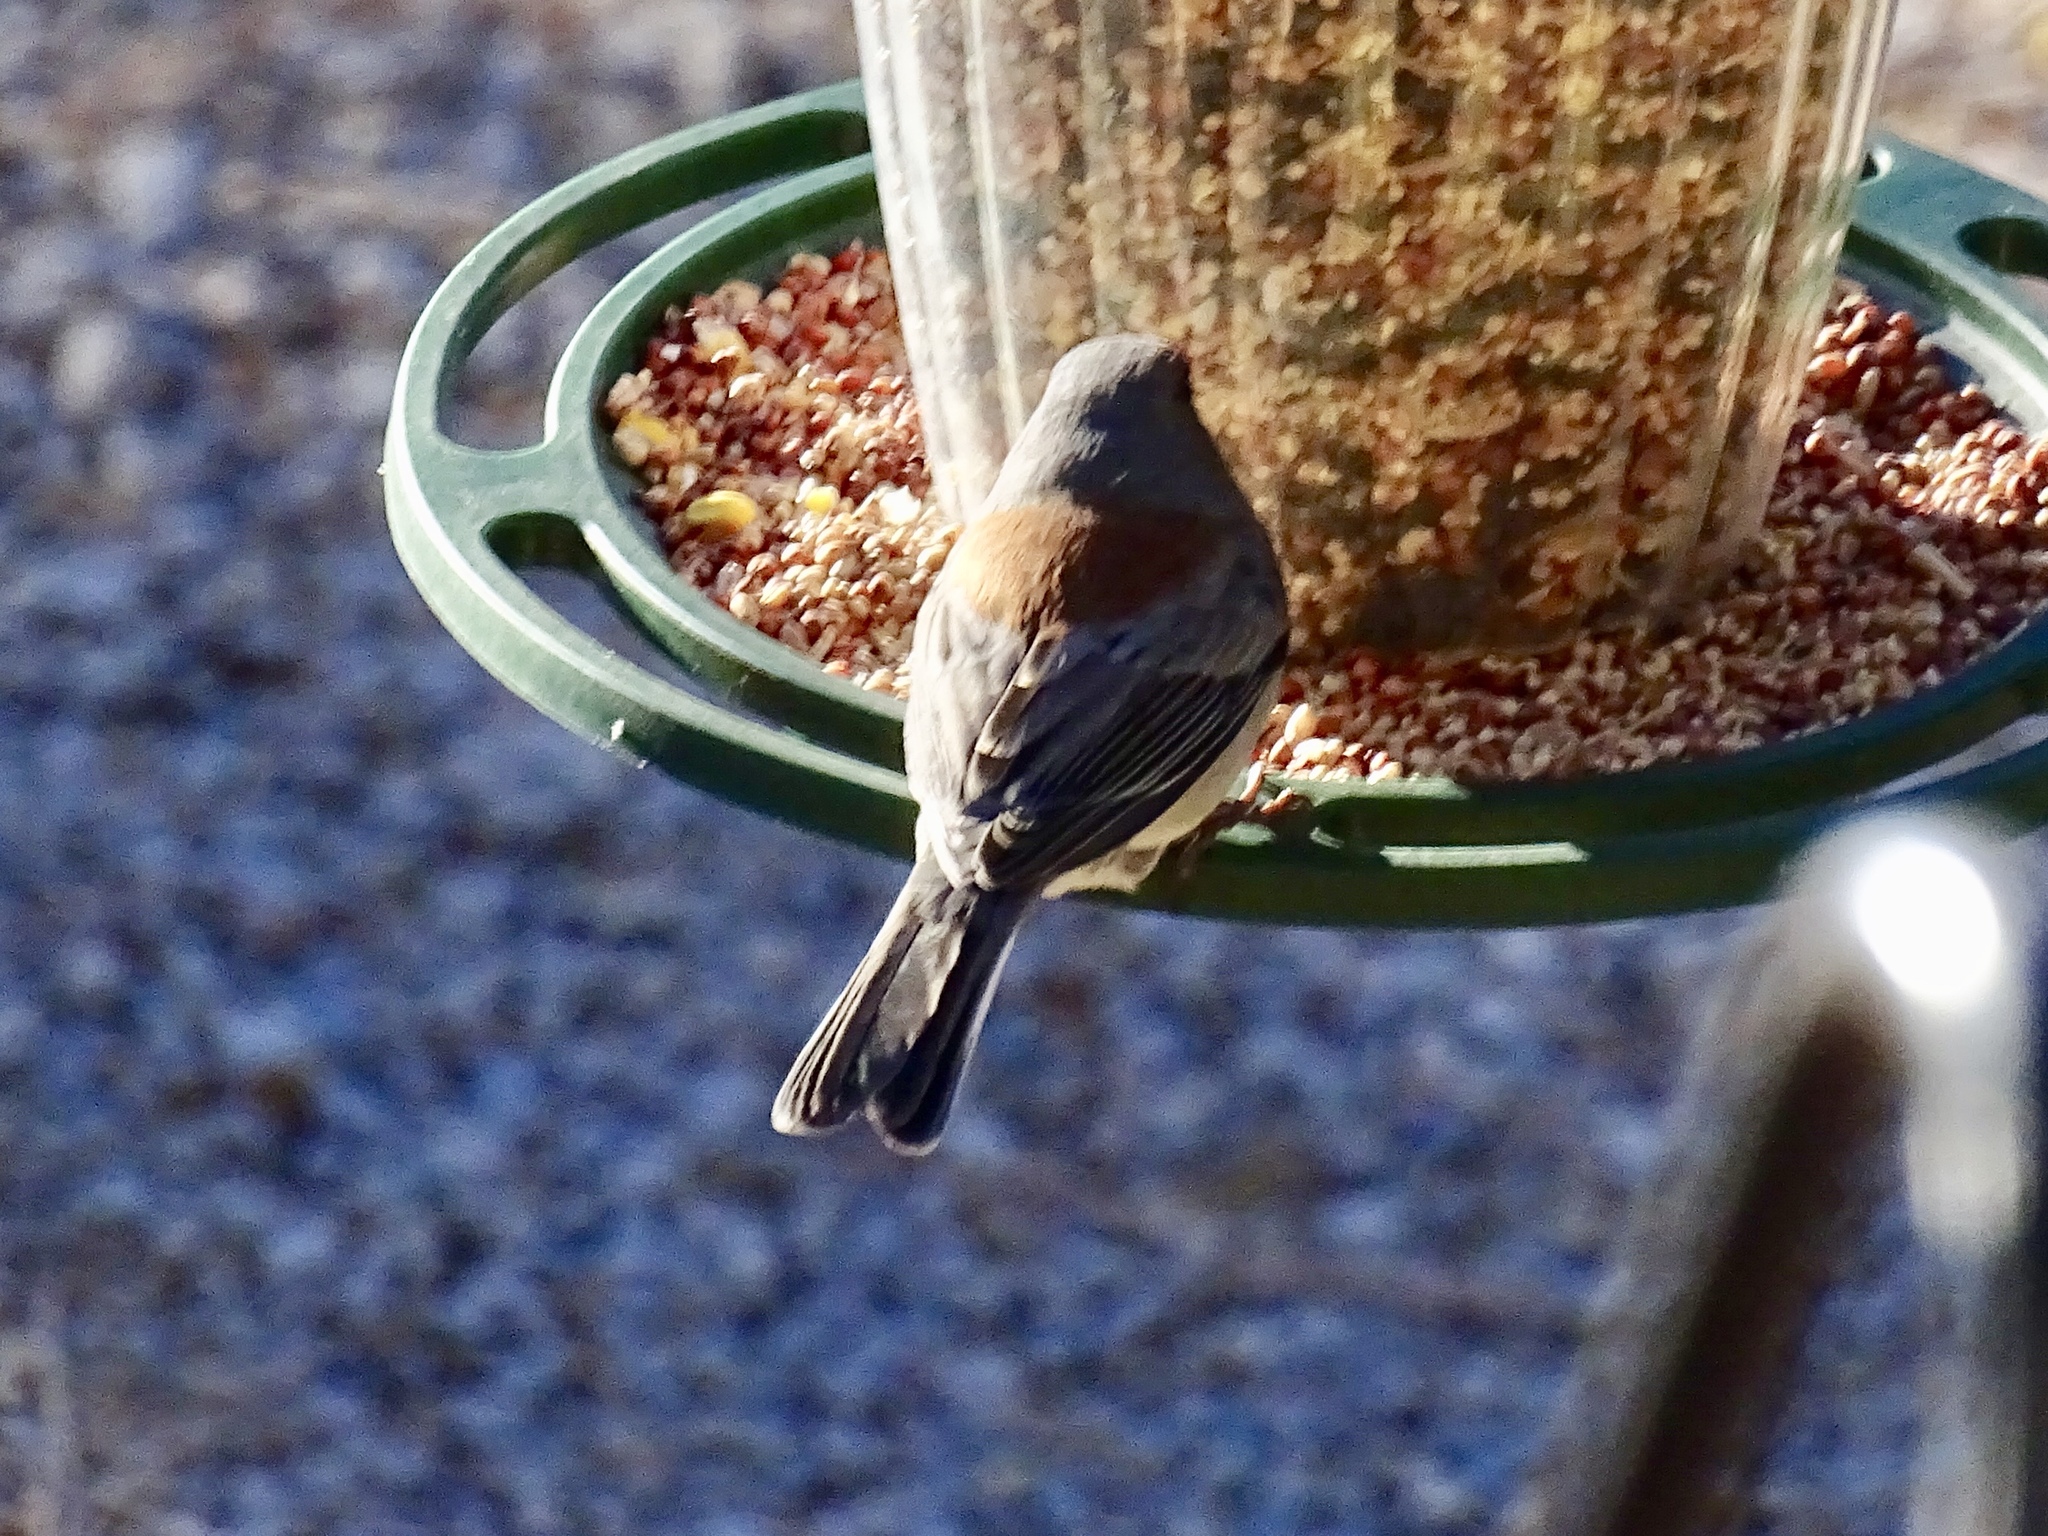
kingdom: Animalia
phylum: Chordata
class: Aves
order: Passeriformes
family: Passerellidae
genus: Junco
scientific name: Junco hyemalis
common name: Dark-eyed junco
